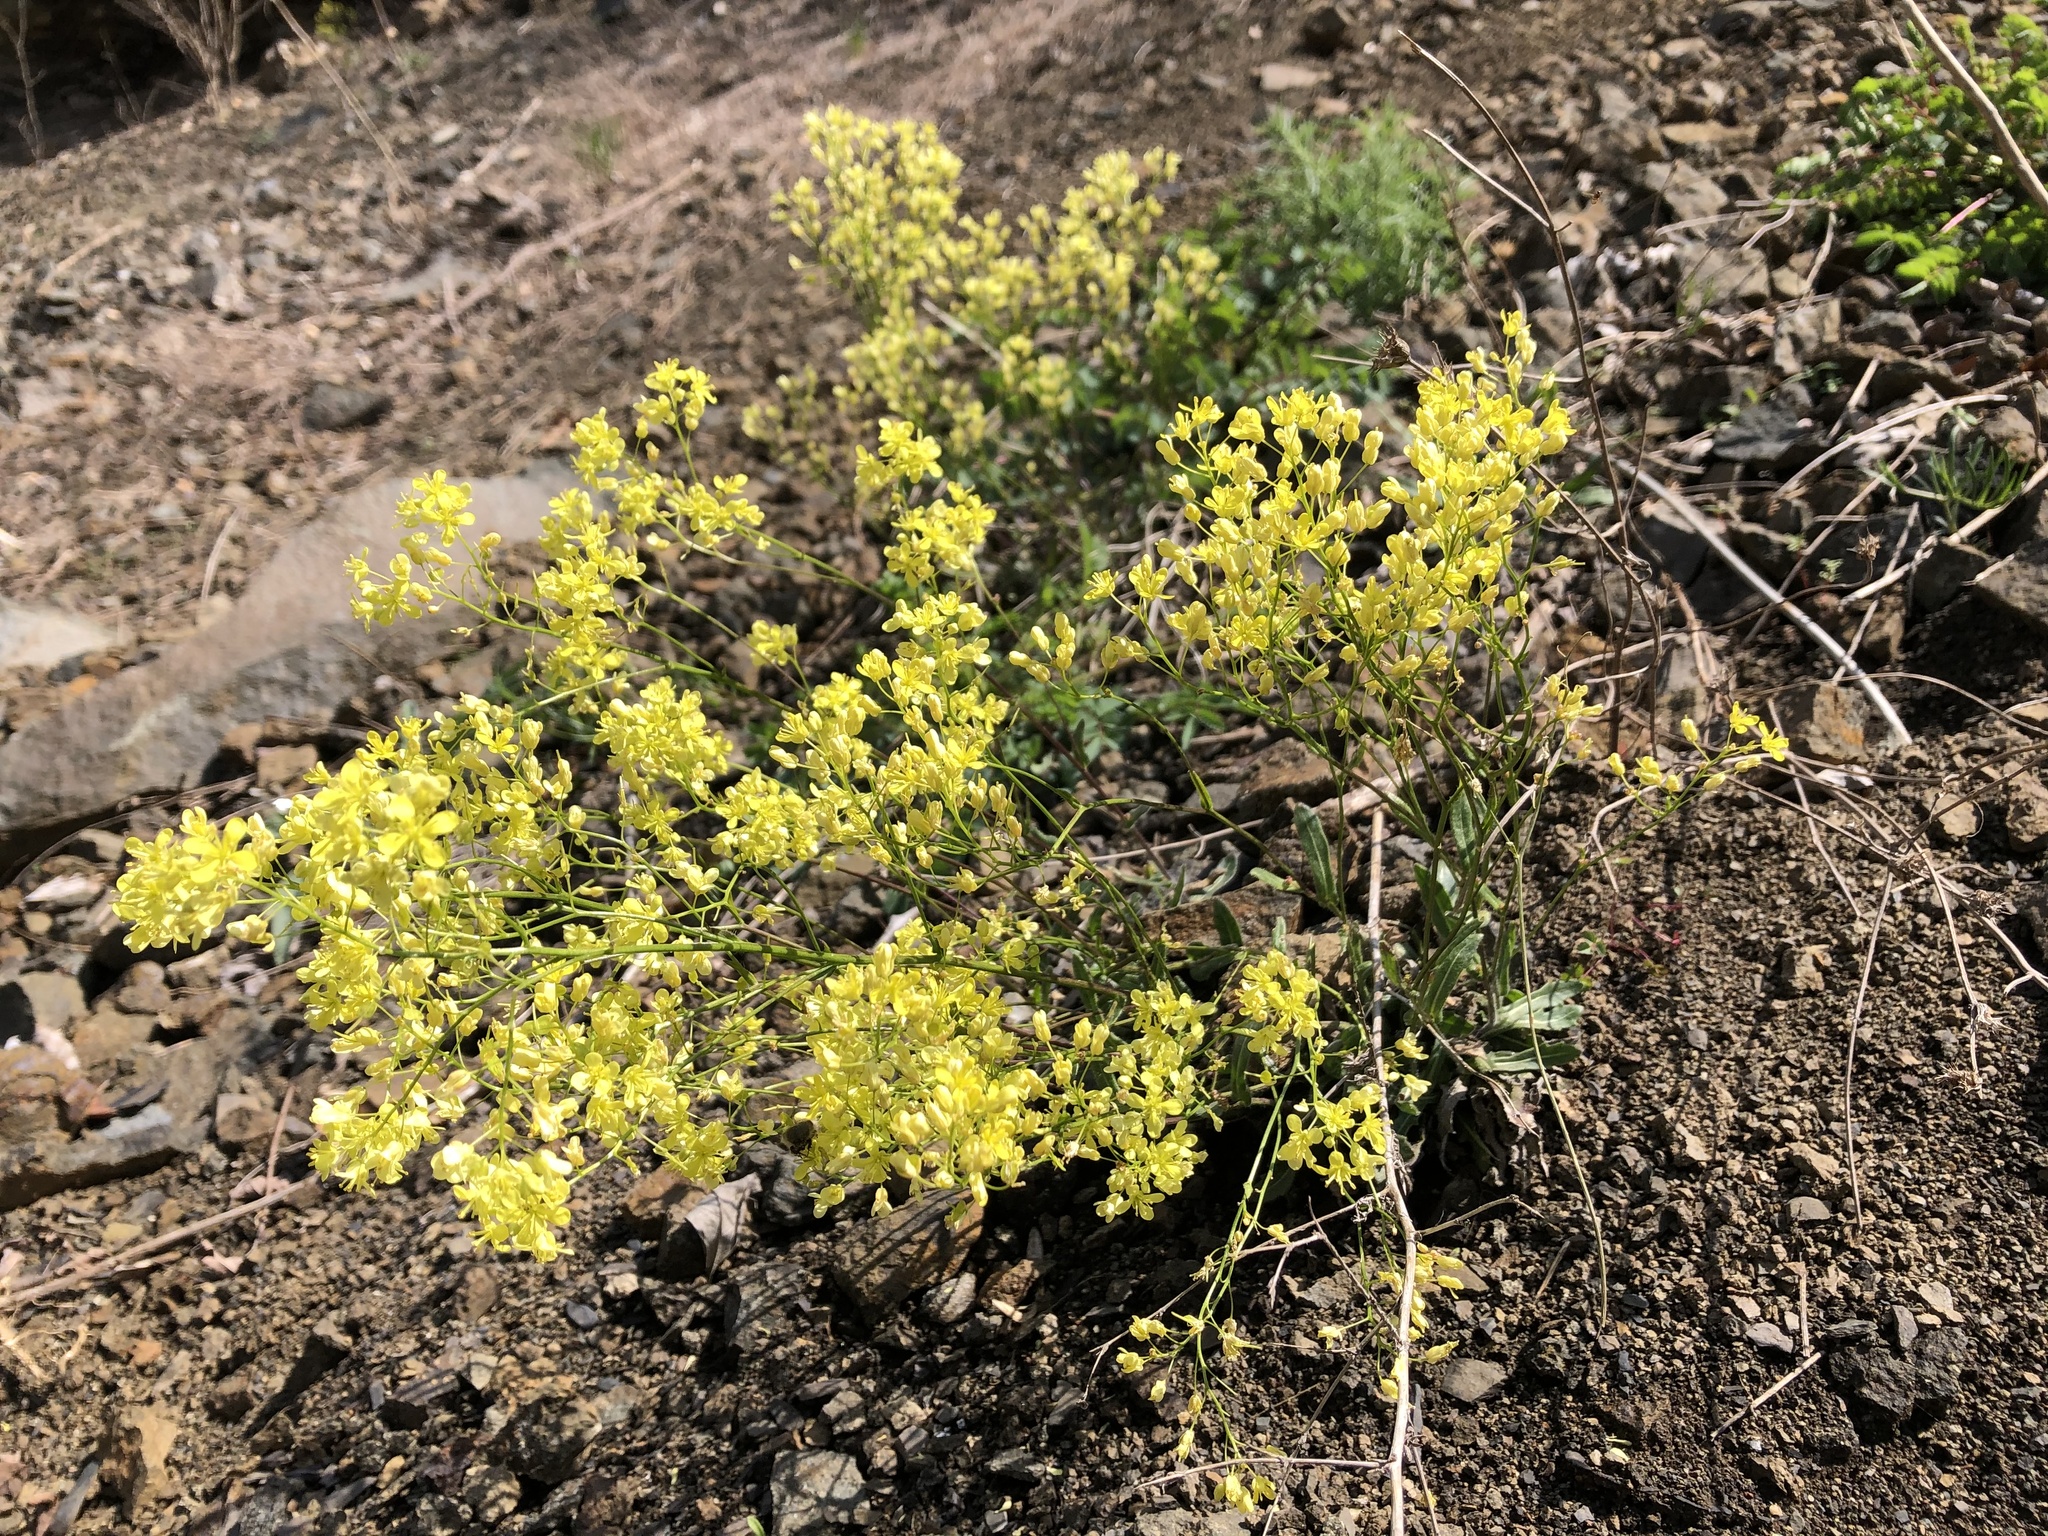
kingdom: Plantae
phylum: Tracheophyta
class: Magnoliopsida
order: Brassicales
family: Brassicaceae
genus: Biscutella
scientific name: Biscutella laevigata
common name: Buckler mustard
